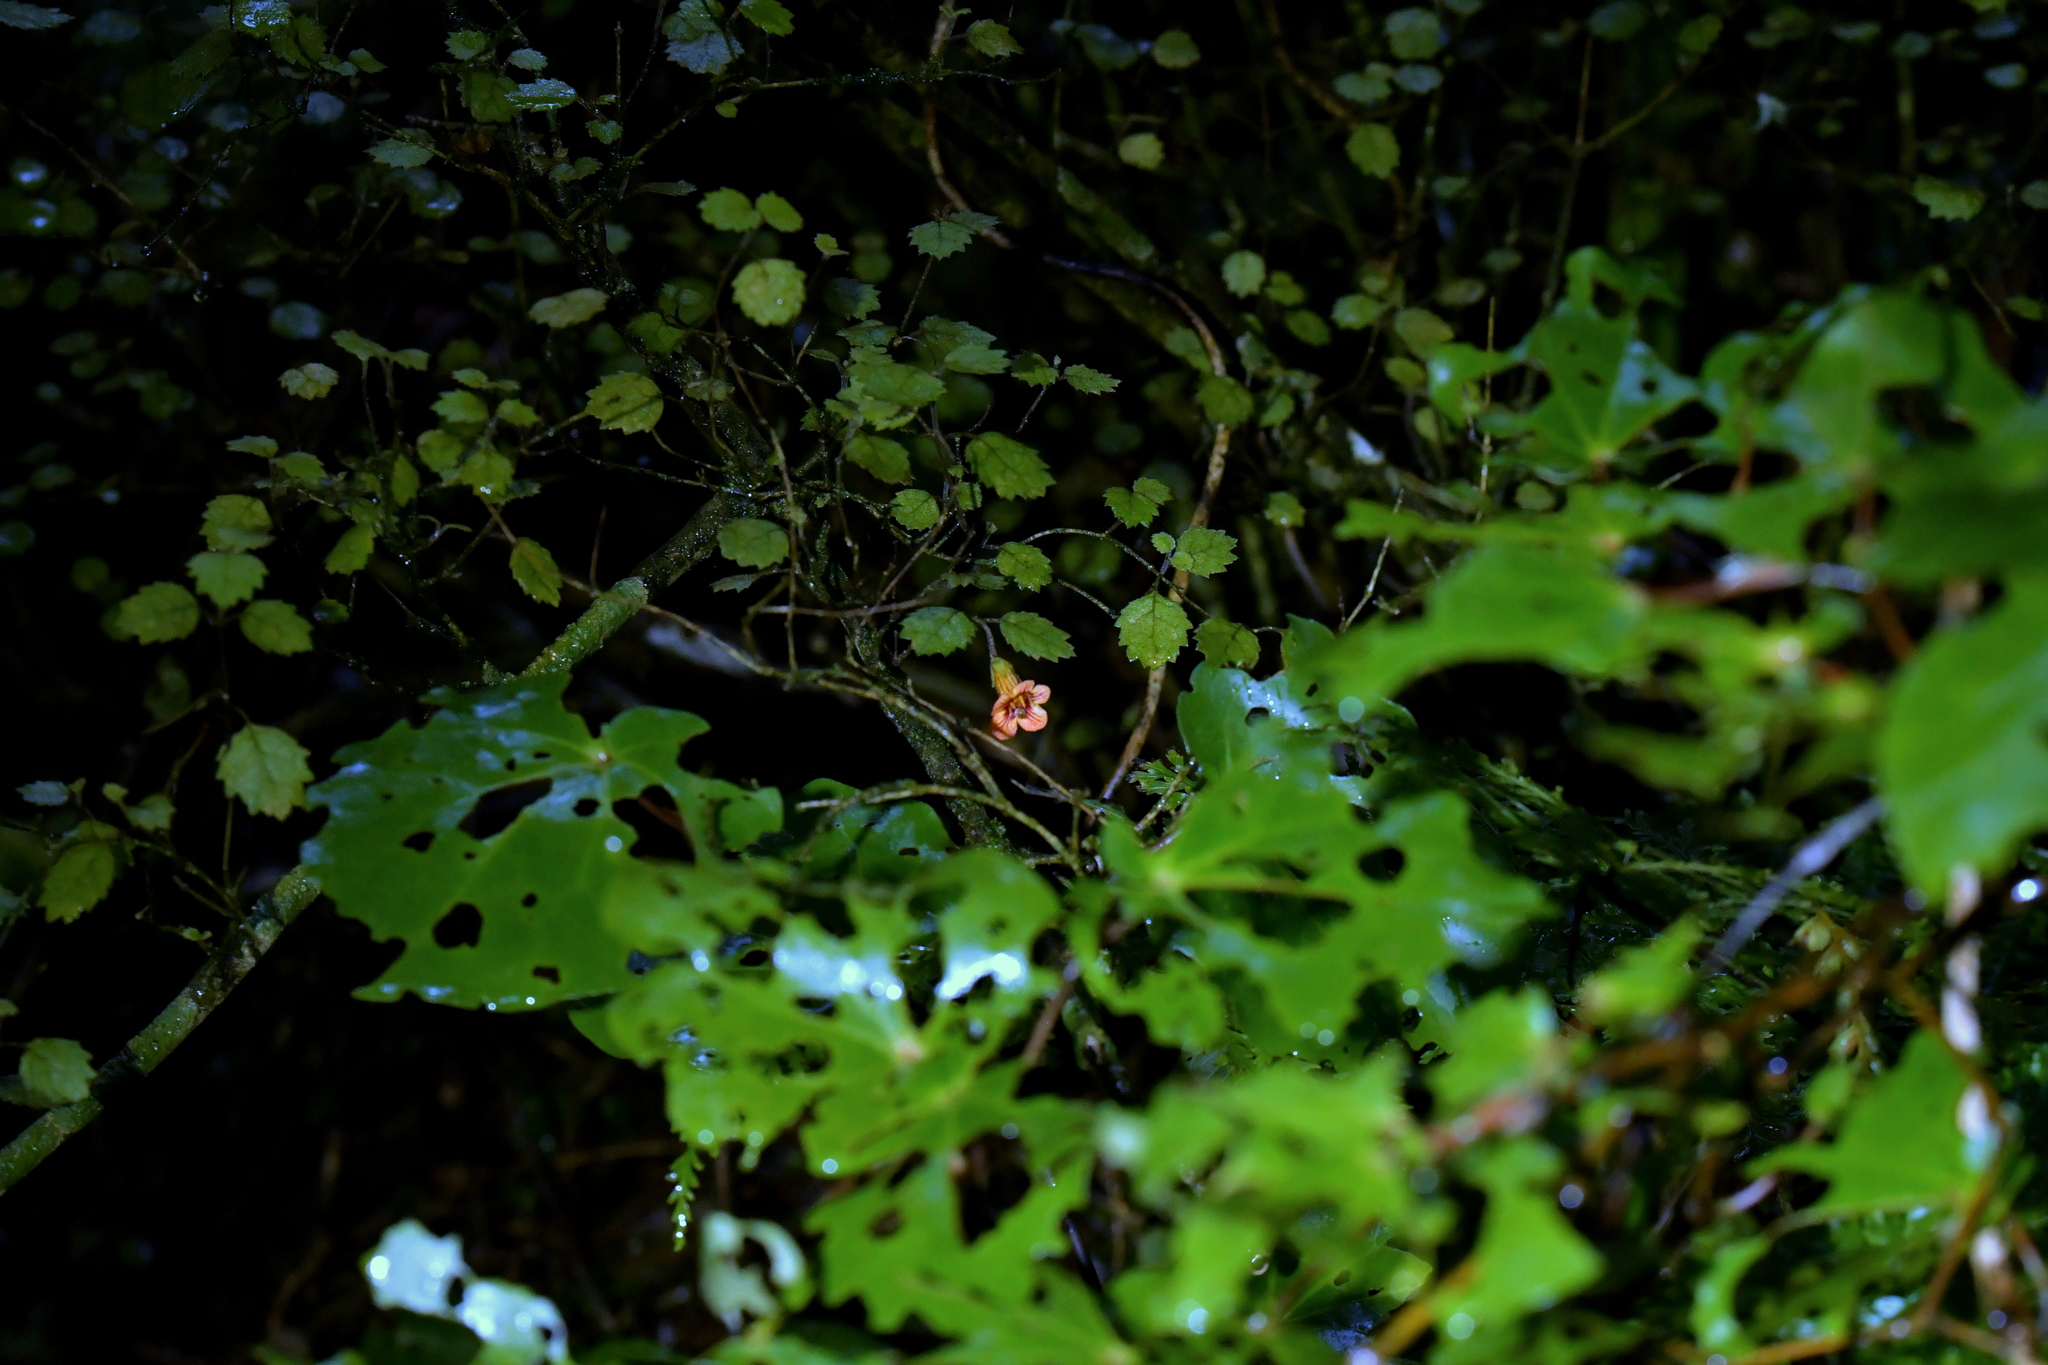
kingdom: Plantae
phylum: Tracheophyta
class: Magnoliopsida
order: Lamiales
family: Gesneriaceae
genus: Rhabdothamnus
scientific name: Rhabdothamnus solandri
